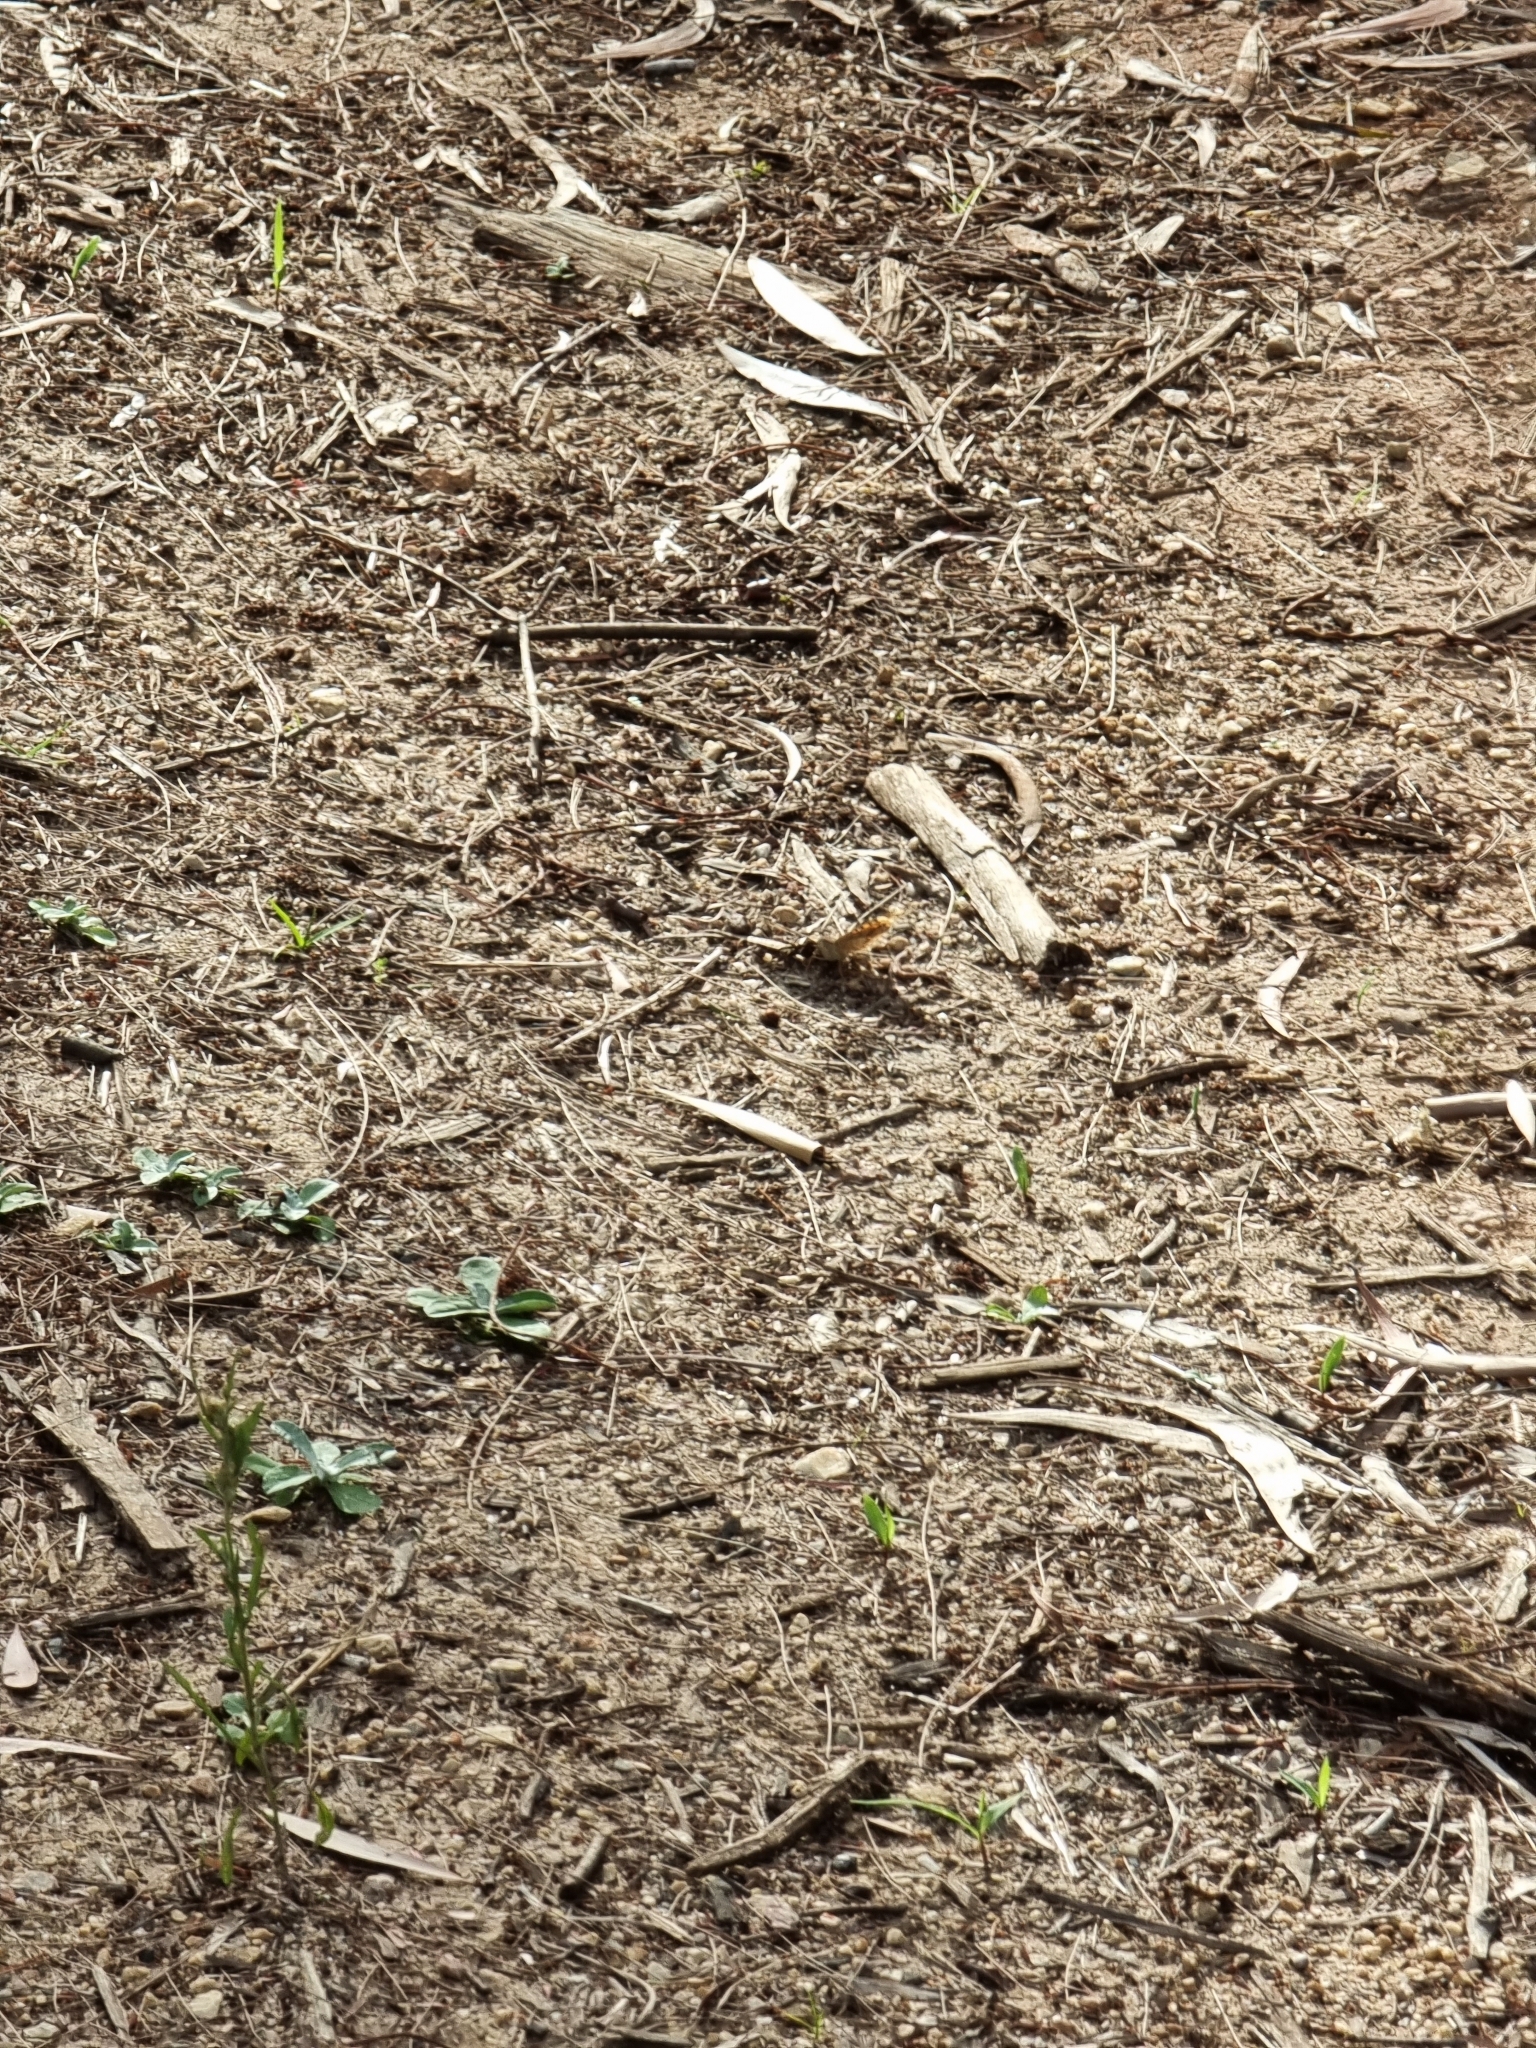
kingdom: Animalia
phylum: Arthropoda
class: Insecta
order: Lepidoptera
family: Nymphalidae
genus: Junonia
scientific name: Junonia villida
